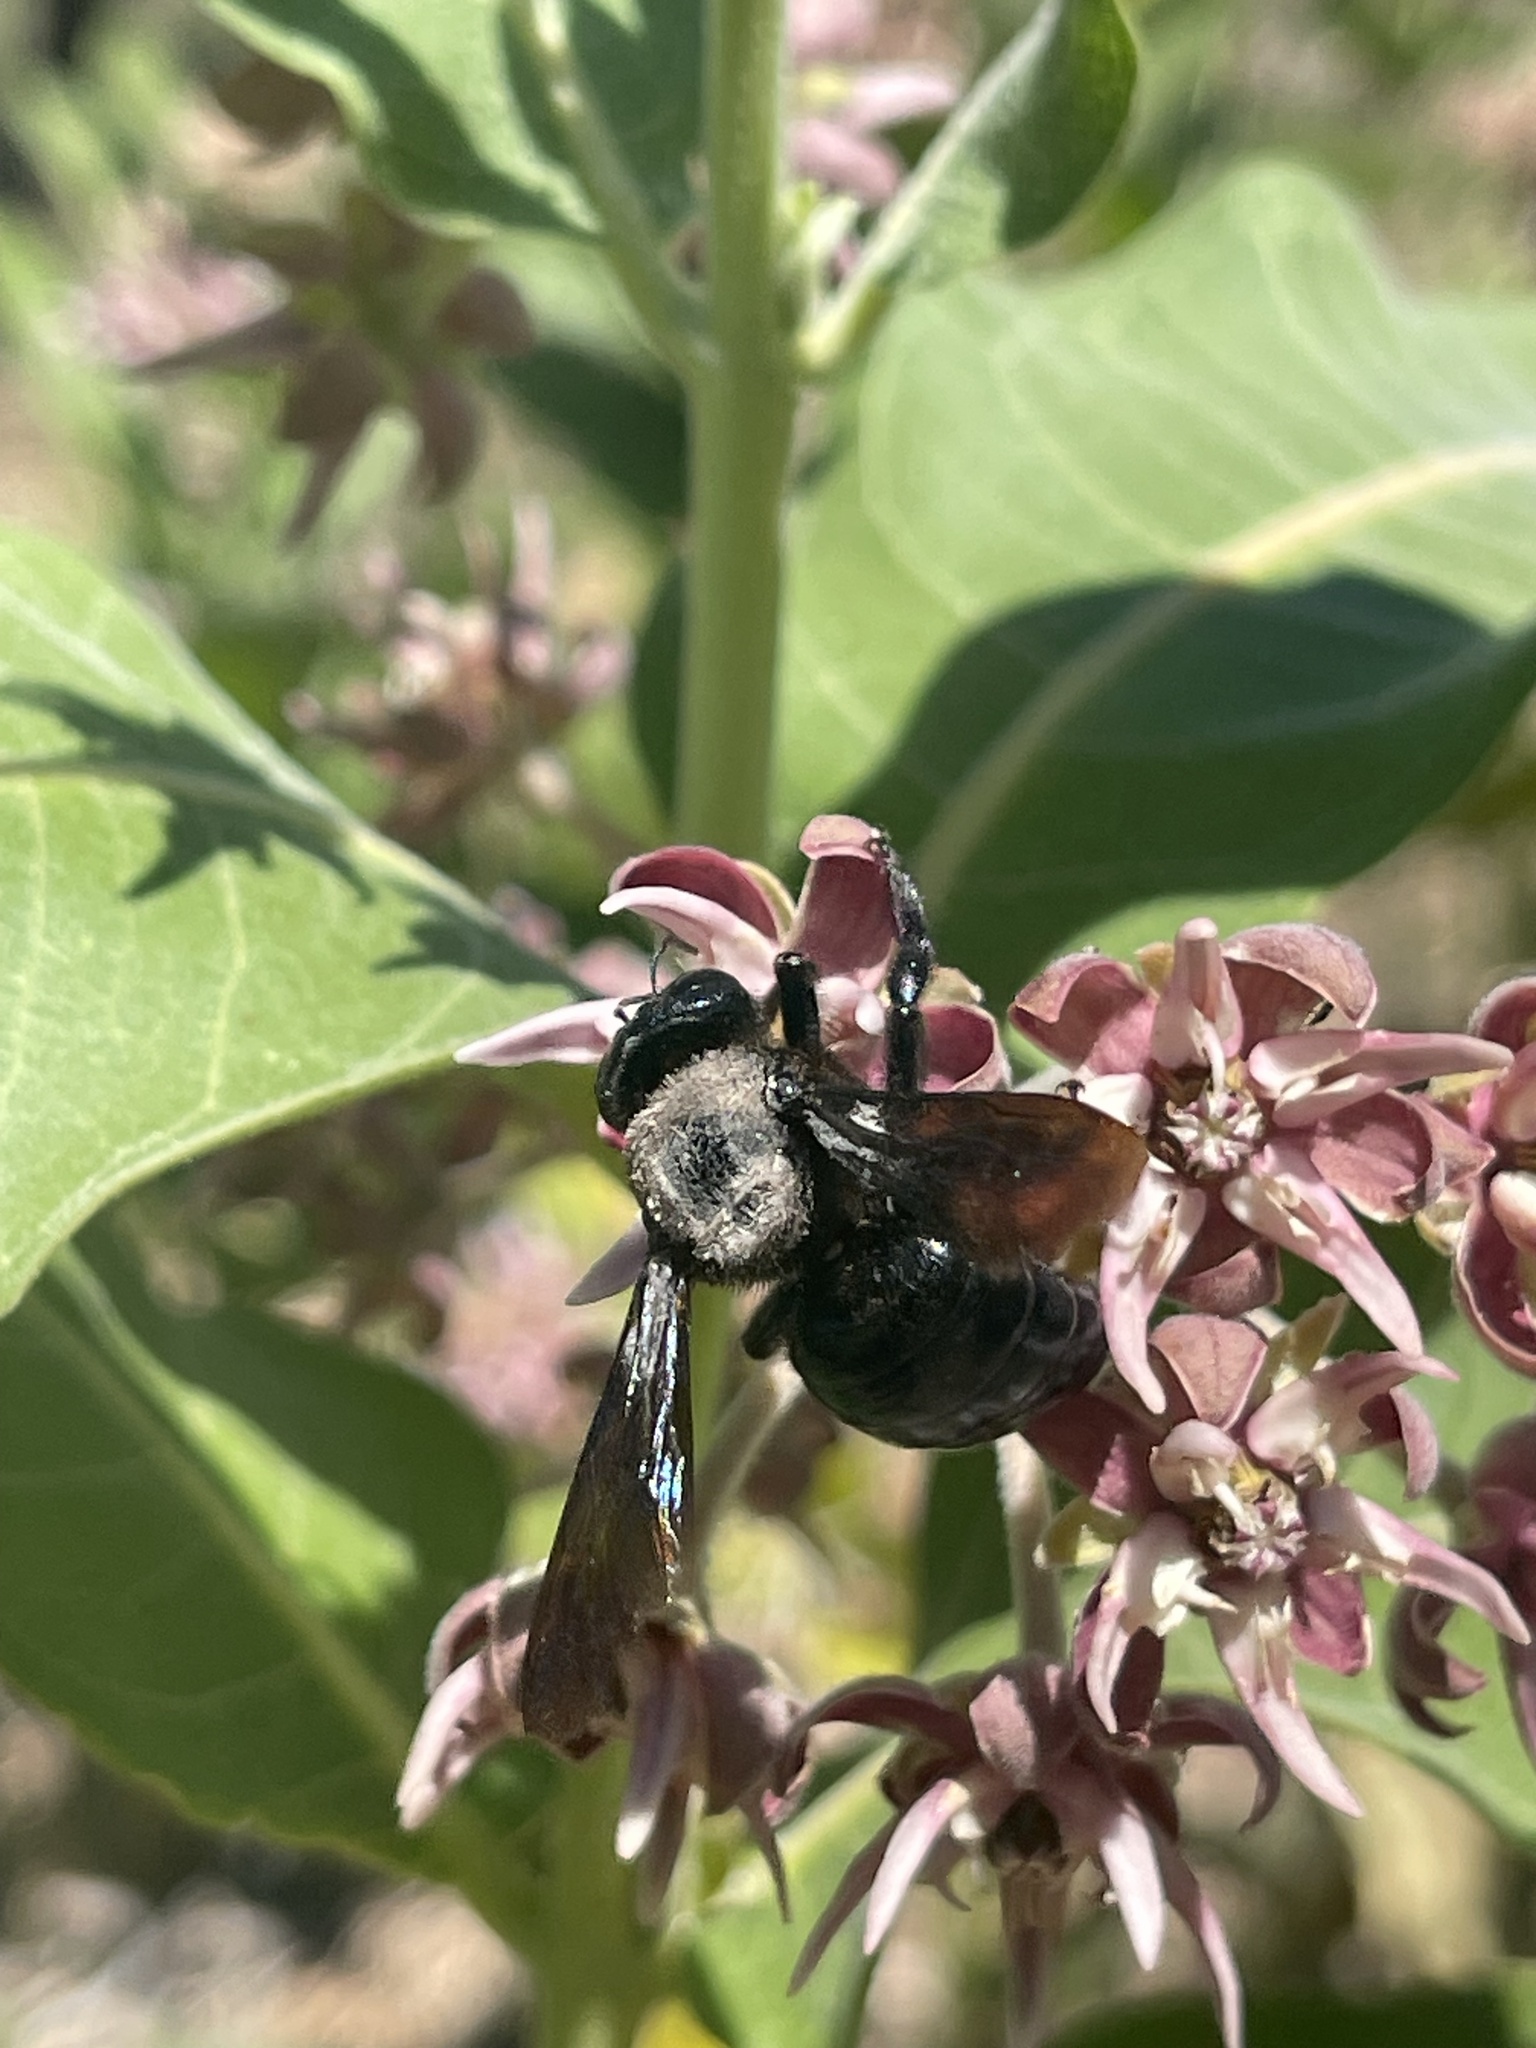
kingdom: Animalia
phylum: Arthropoda
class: Insecta
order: Hymenoptera
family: Apidae
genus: Xylocopa
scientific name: Xylocopa californica
